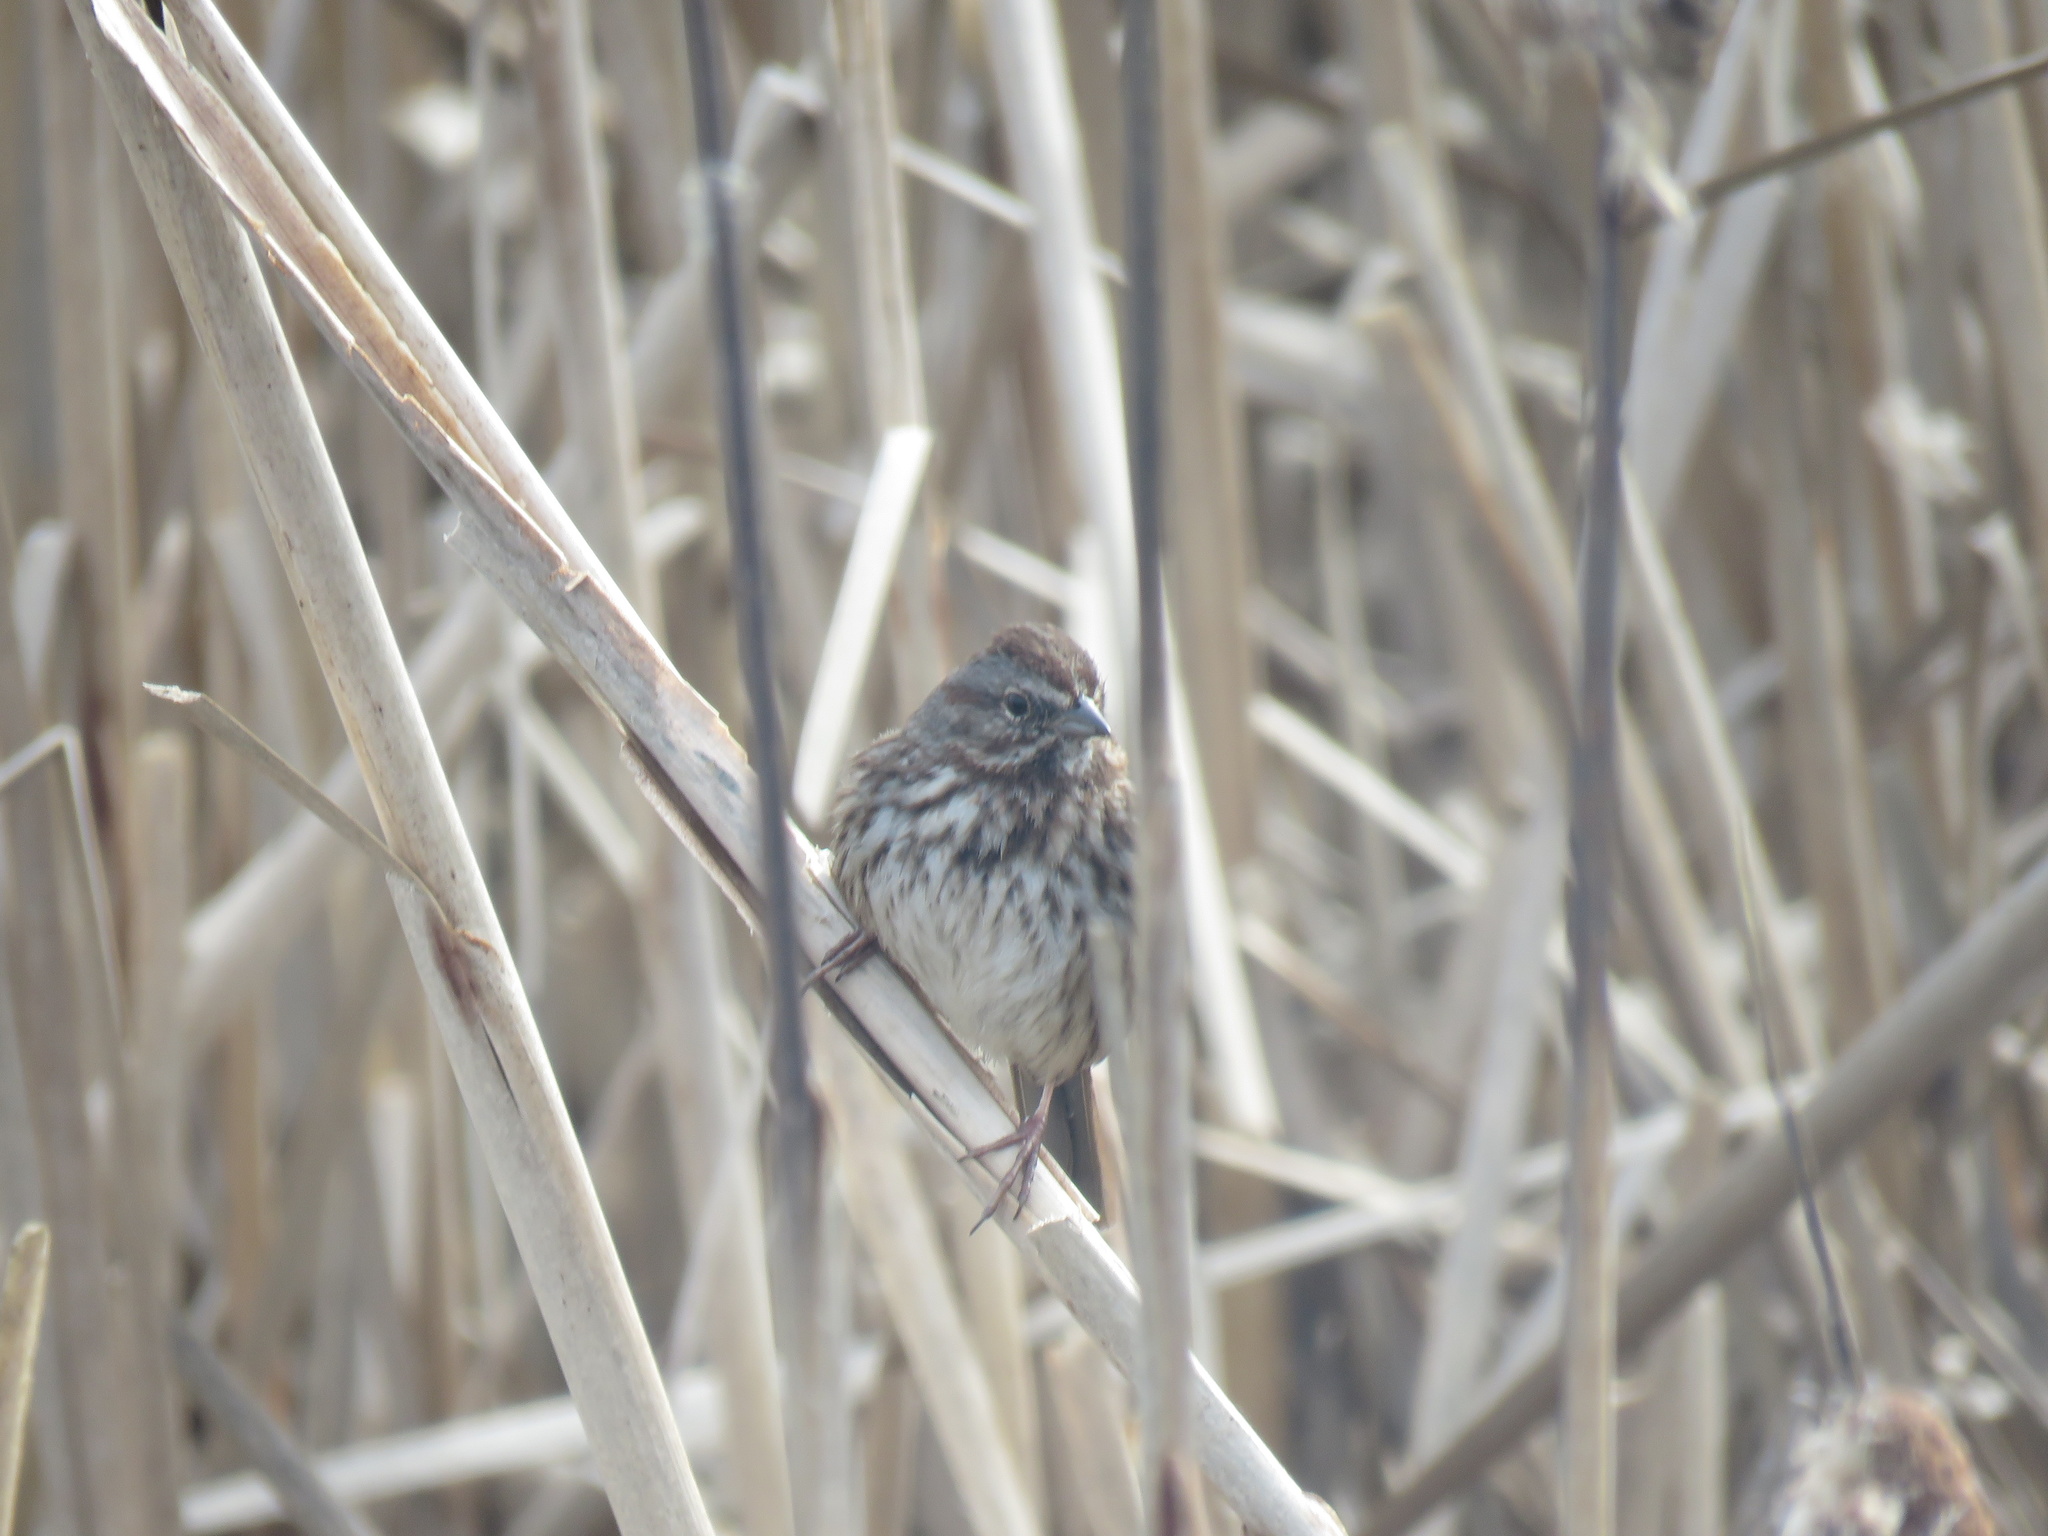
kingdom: Animalia
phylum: Chordata
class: Aves
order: Passeriformes
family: Passerellidae
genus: Melospiza
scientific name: Melospiza melodia
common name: Song sparrow
